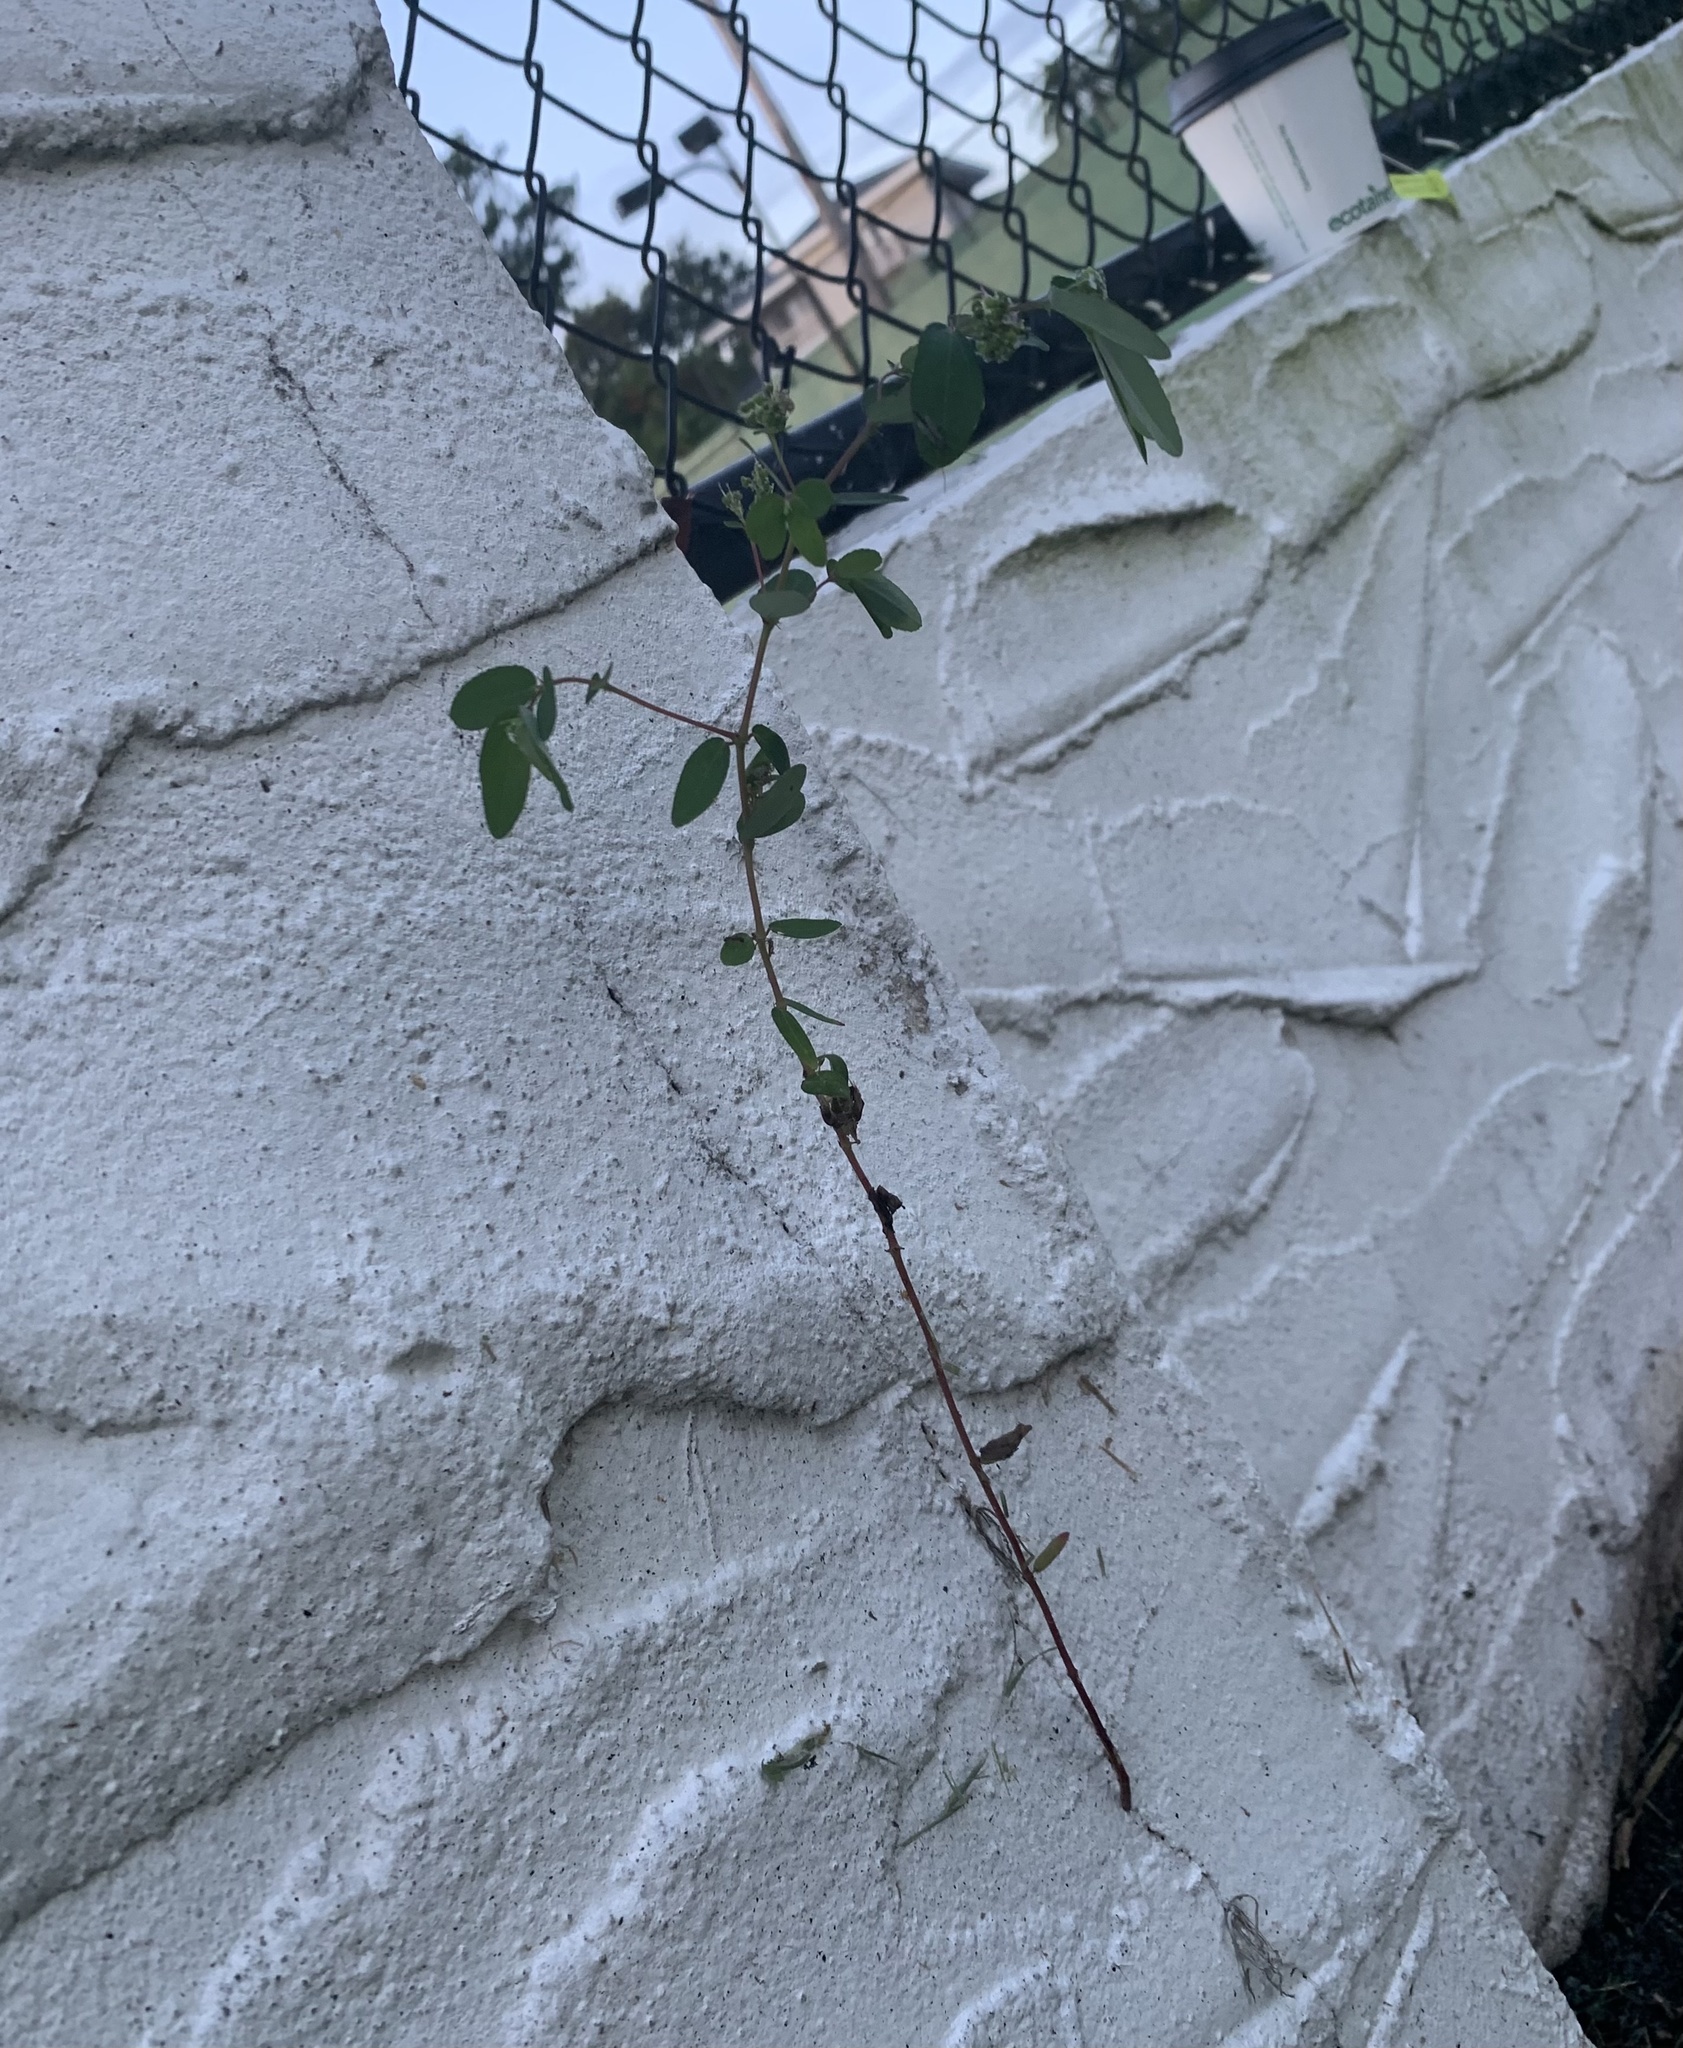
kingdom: Plantae
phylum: Tracheophyta
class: Magnoliopsida
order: Malpighiales
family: Euphorbiaceae
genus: Euphorbia
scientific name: Euphorbia hypericifolia
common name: Graceful sandmat
